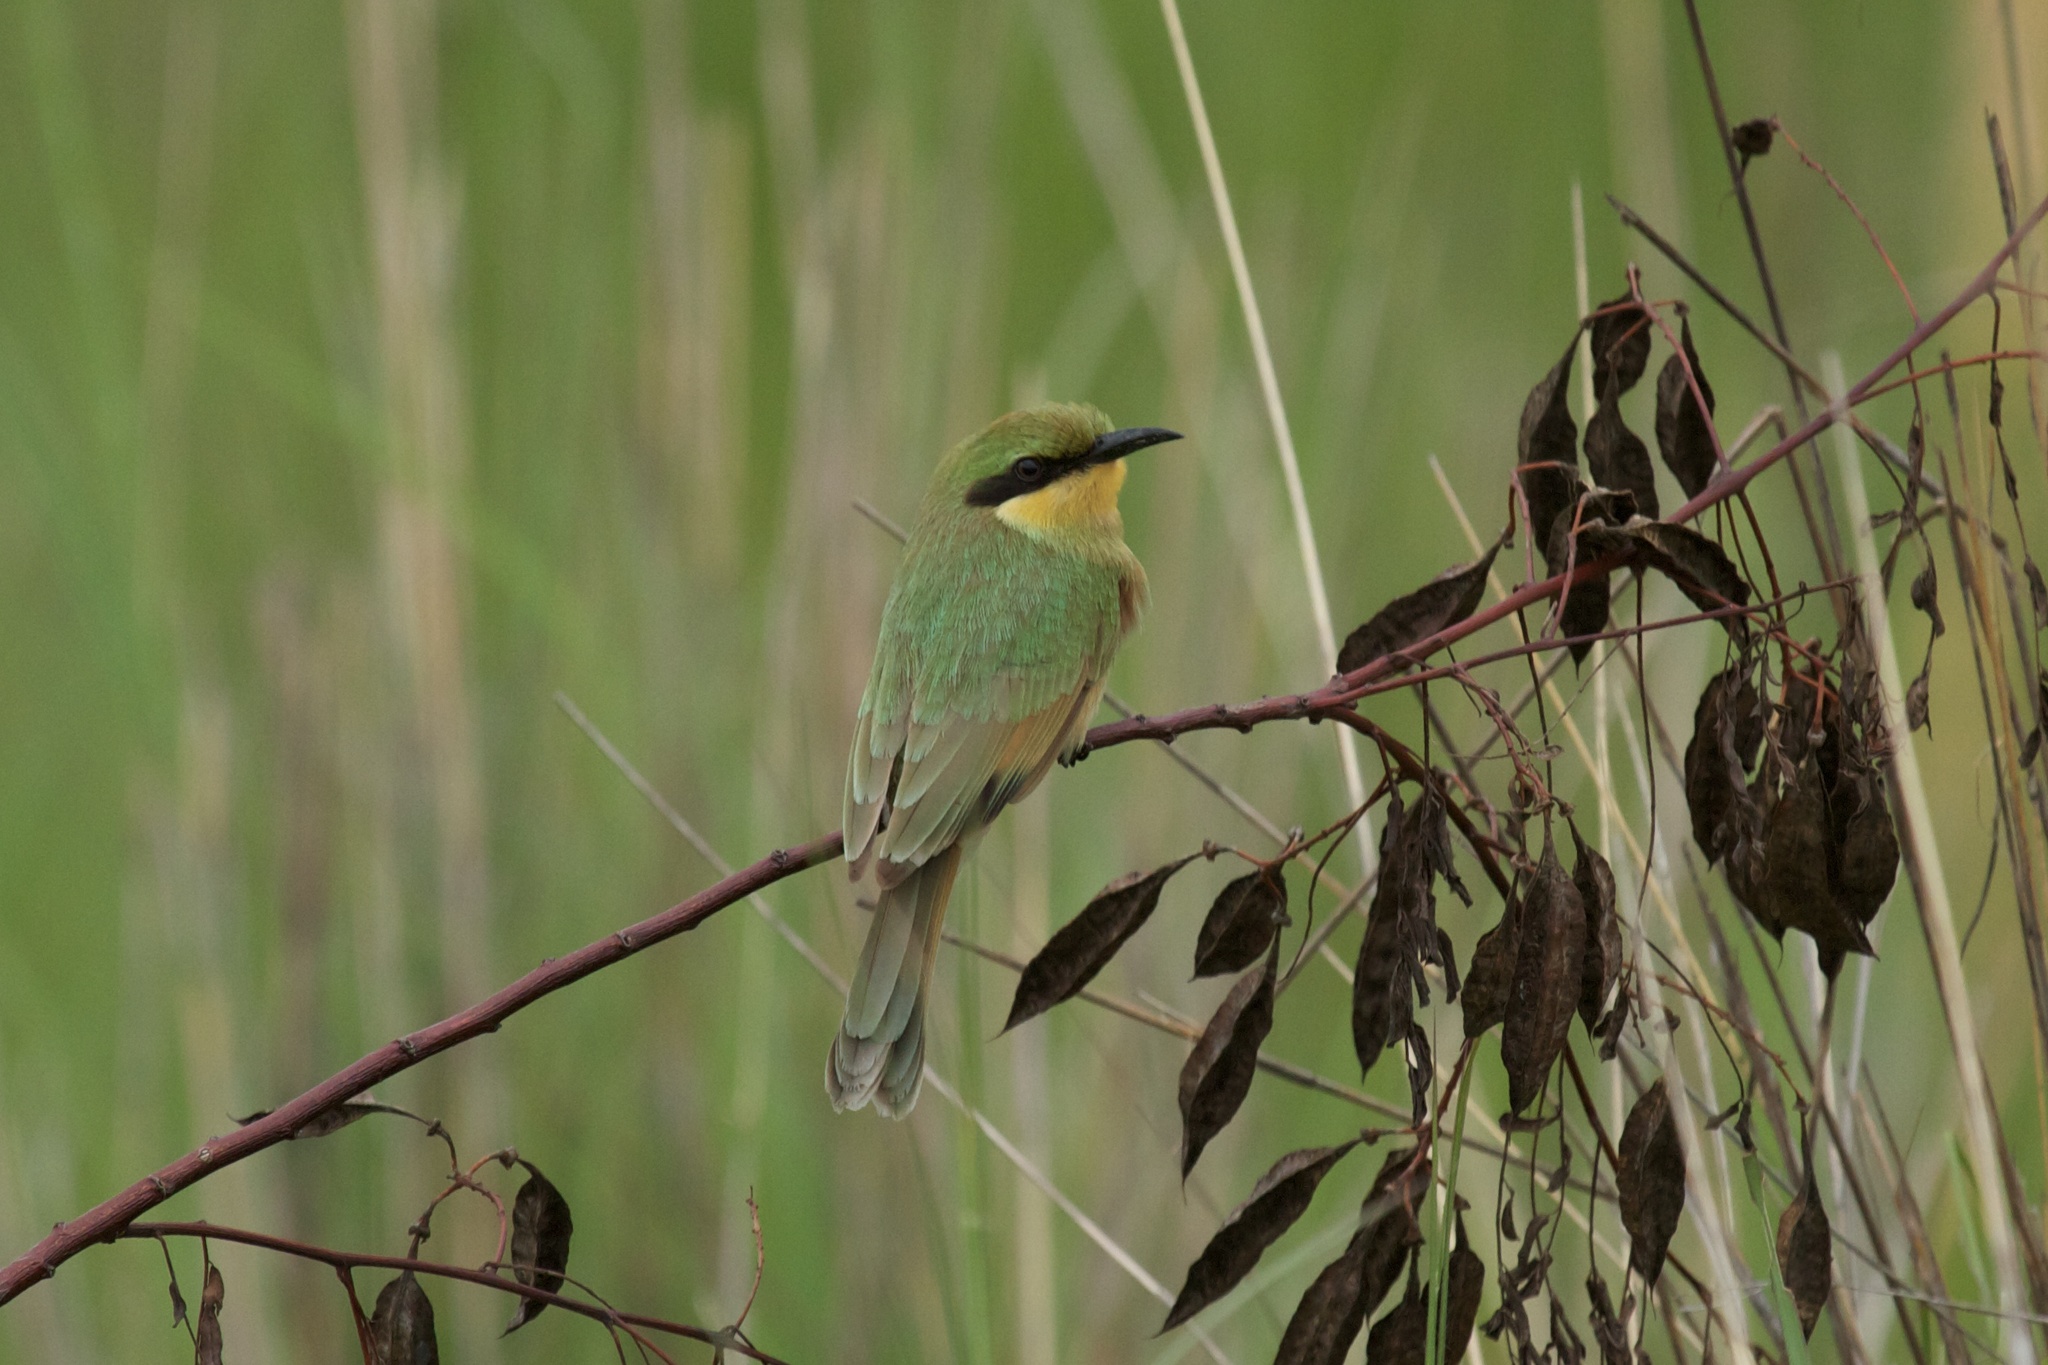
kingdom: Animalia
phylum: Chordata
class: Aves
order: Coraciiformes
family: Meropidae
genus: Merops
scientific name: Merops pusillus
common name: Little bee-eater
